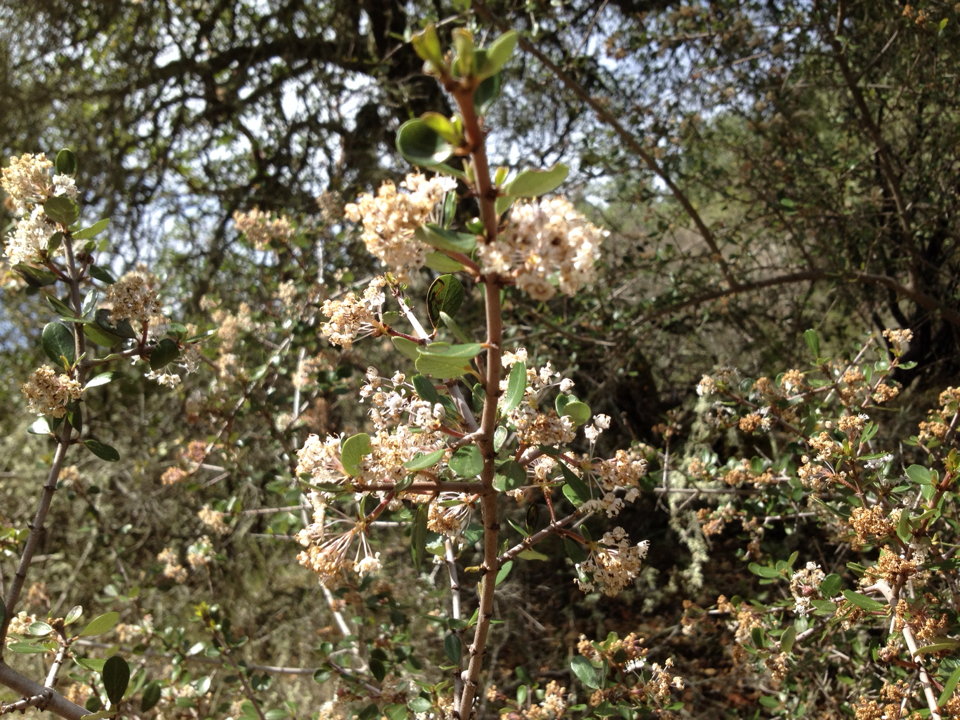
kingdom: Plantae
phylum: Tracheophyta
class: Magnoliopsida
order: Rosales
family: Rhamnaceae
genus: Ceanothus
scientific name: Ceanothus cuneatus
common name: Cuneate ceanothus
